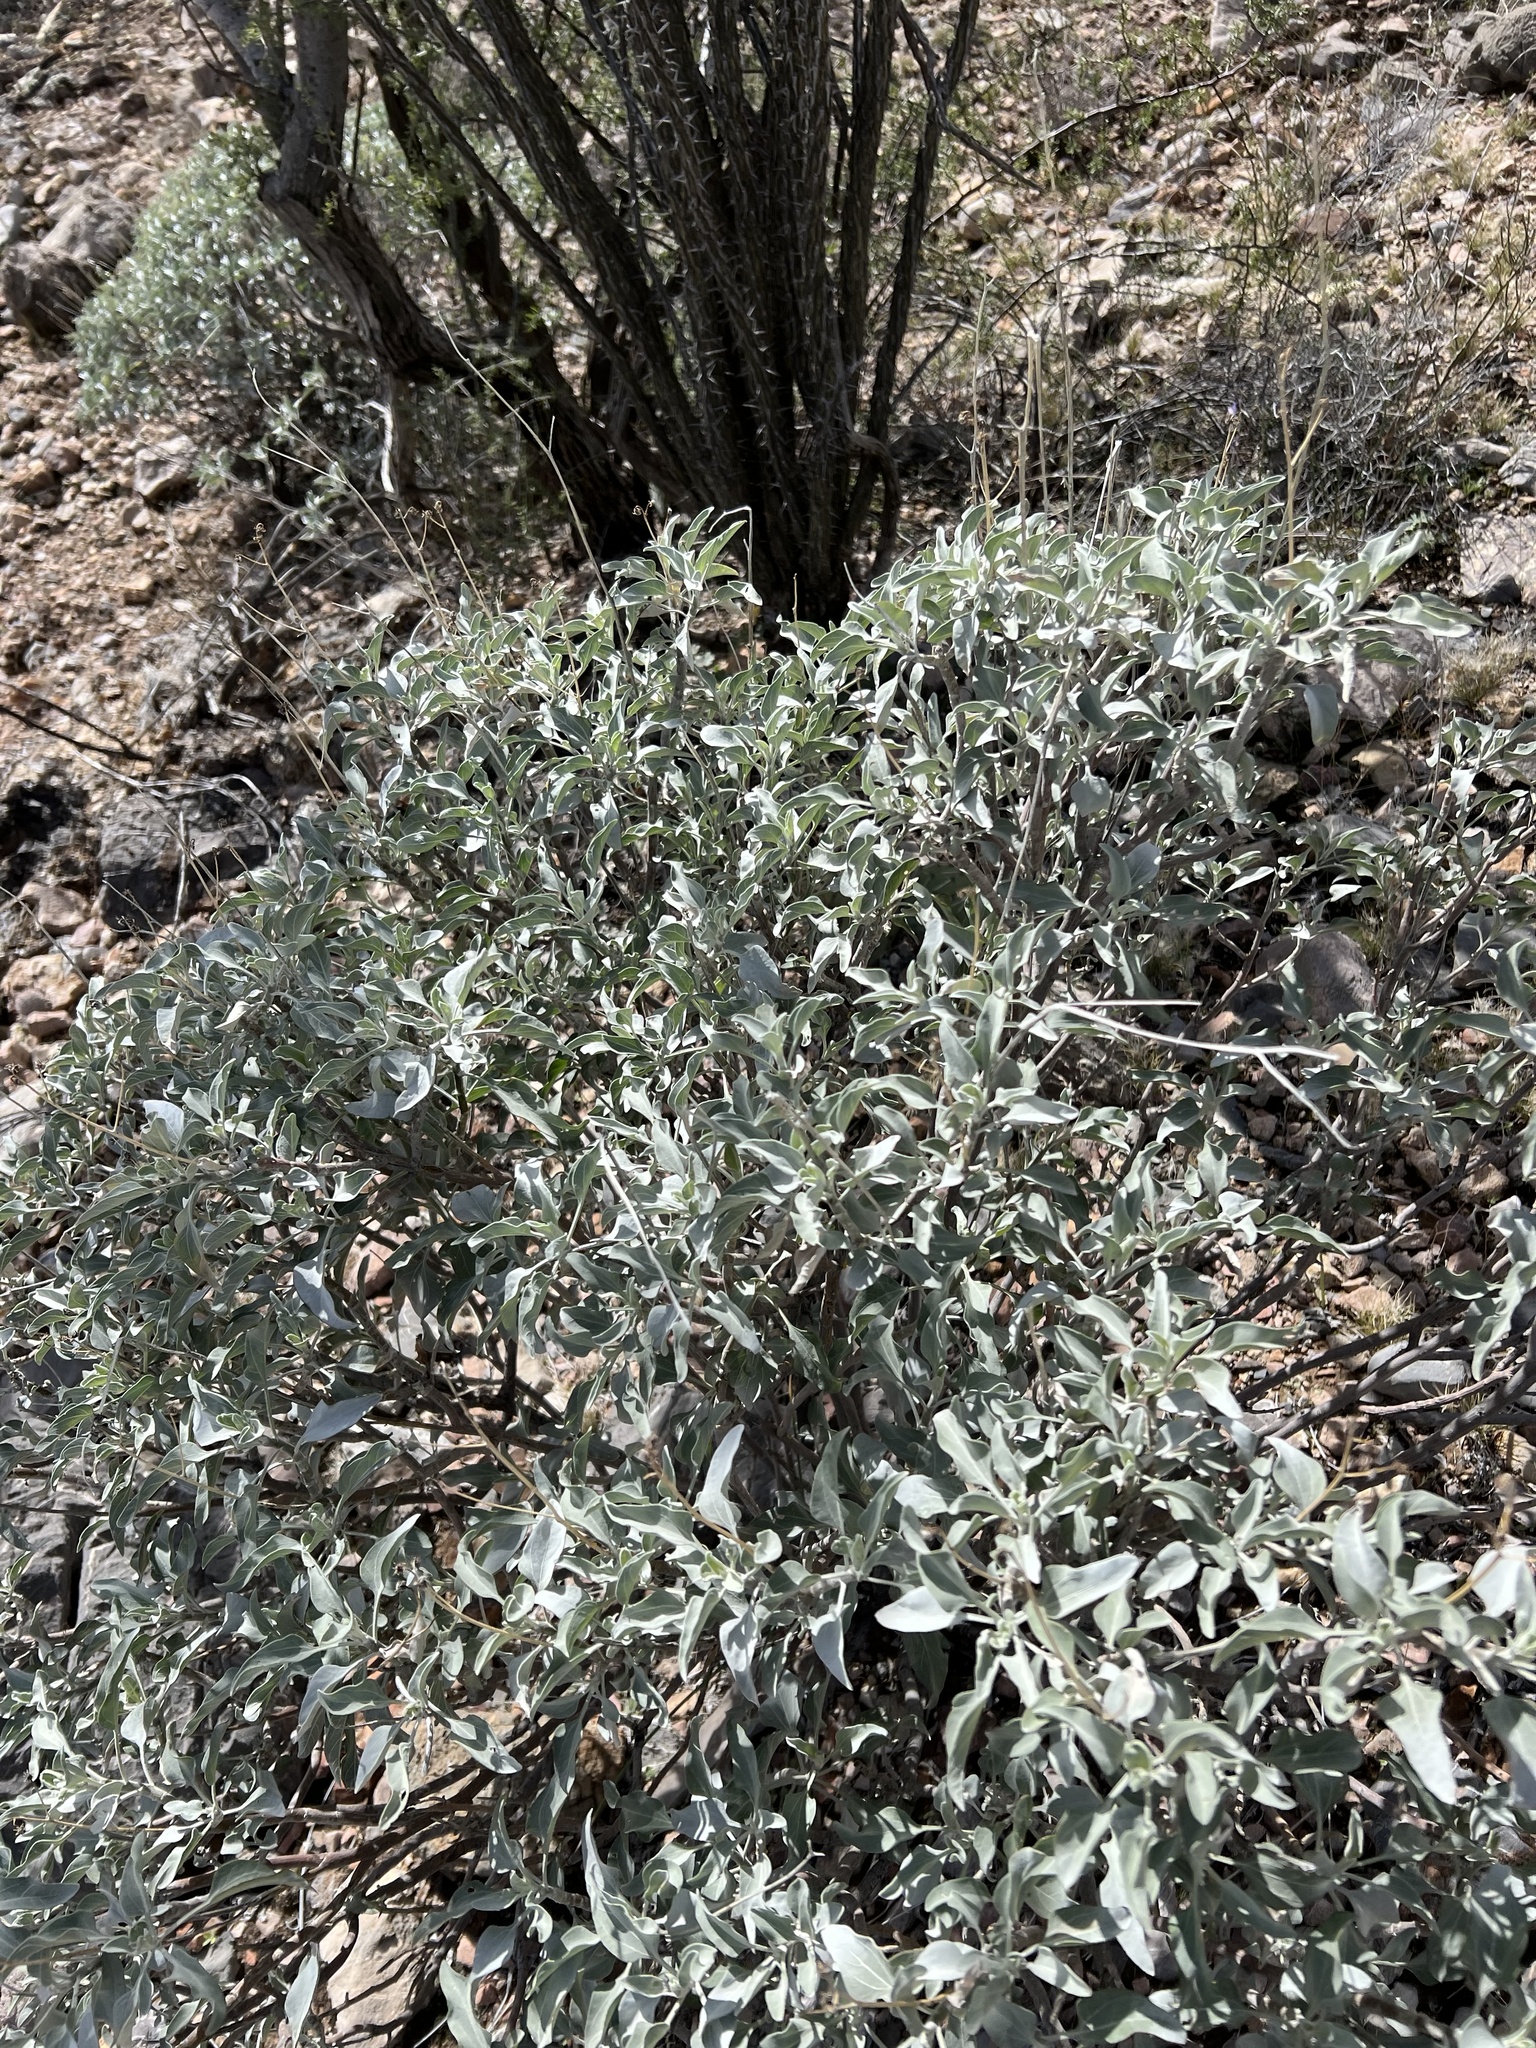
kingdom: Plantae
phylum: Tracheophyta
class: Magnoliopsida
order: Asterales
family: Asteraceae
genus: Encelia
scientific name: Encelia farinosa
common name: Brittlebush
